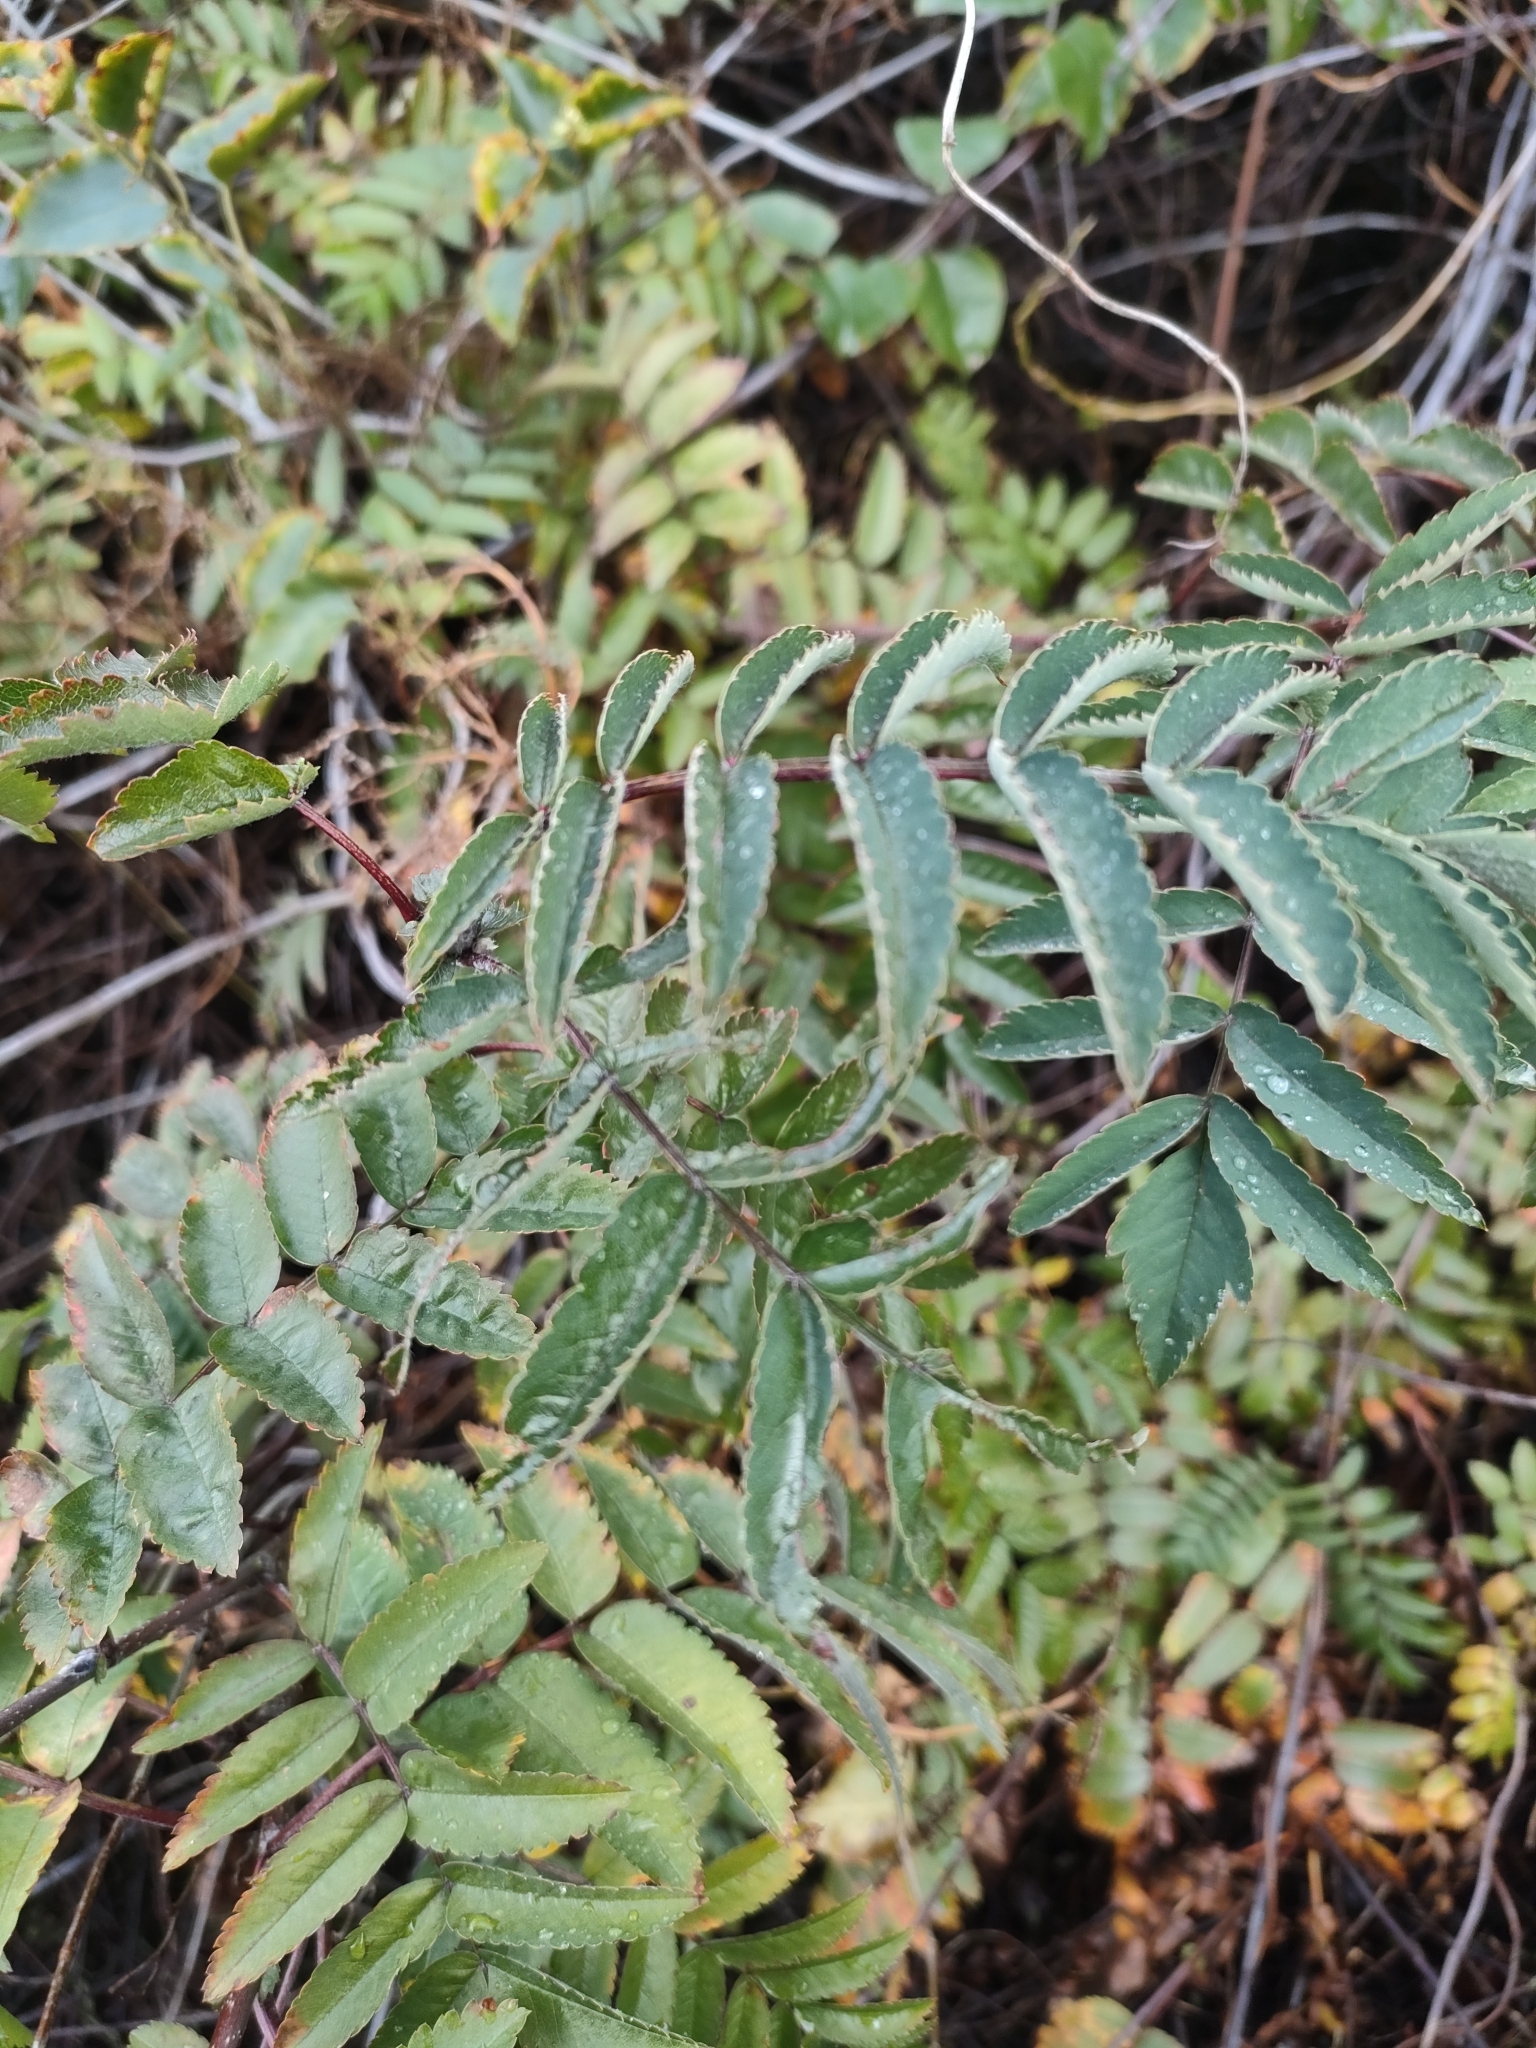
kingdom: Plantae
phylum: Tracheophyta
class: Magnoliopsida
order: Rosales
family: Rosaceae
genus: Sorbus
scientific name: Sorbus aucuparia
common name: Rowan
